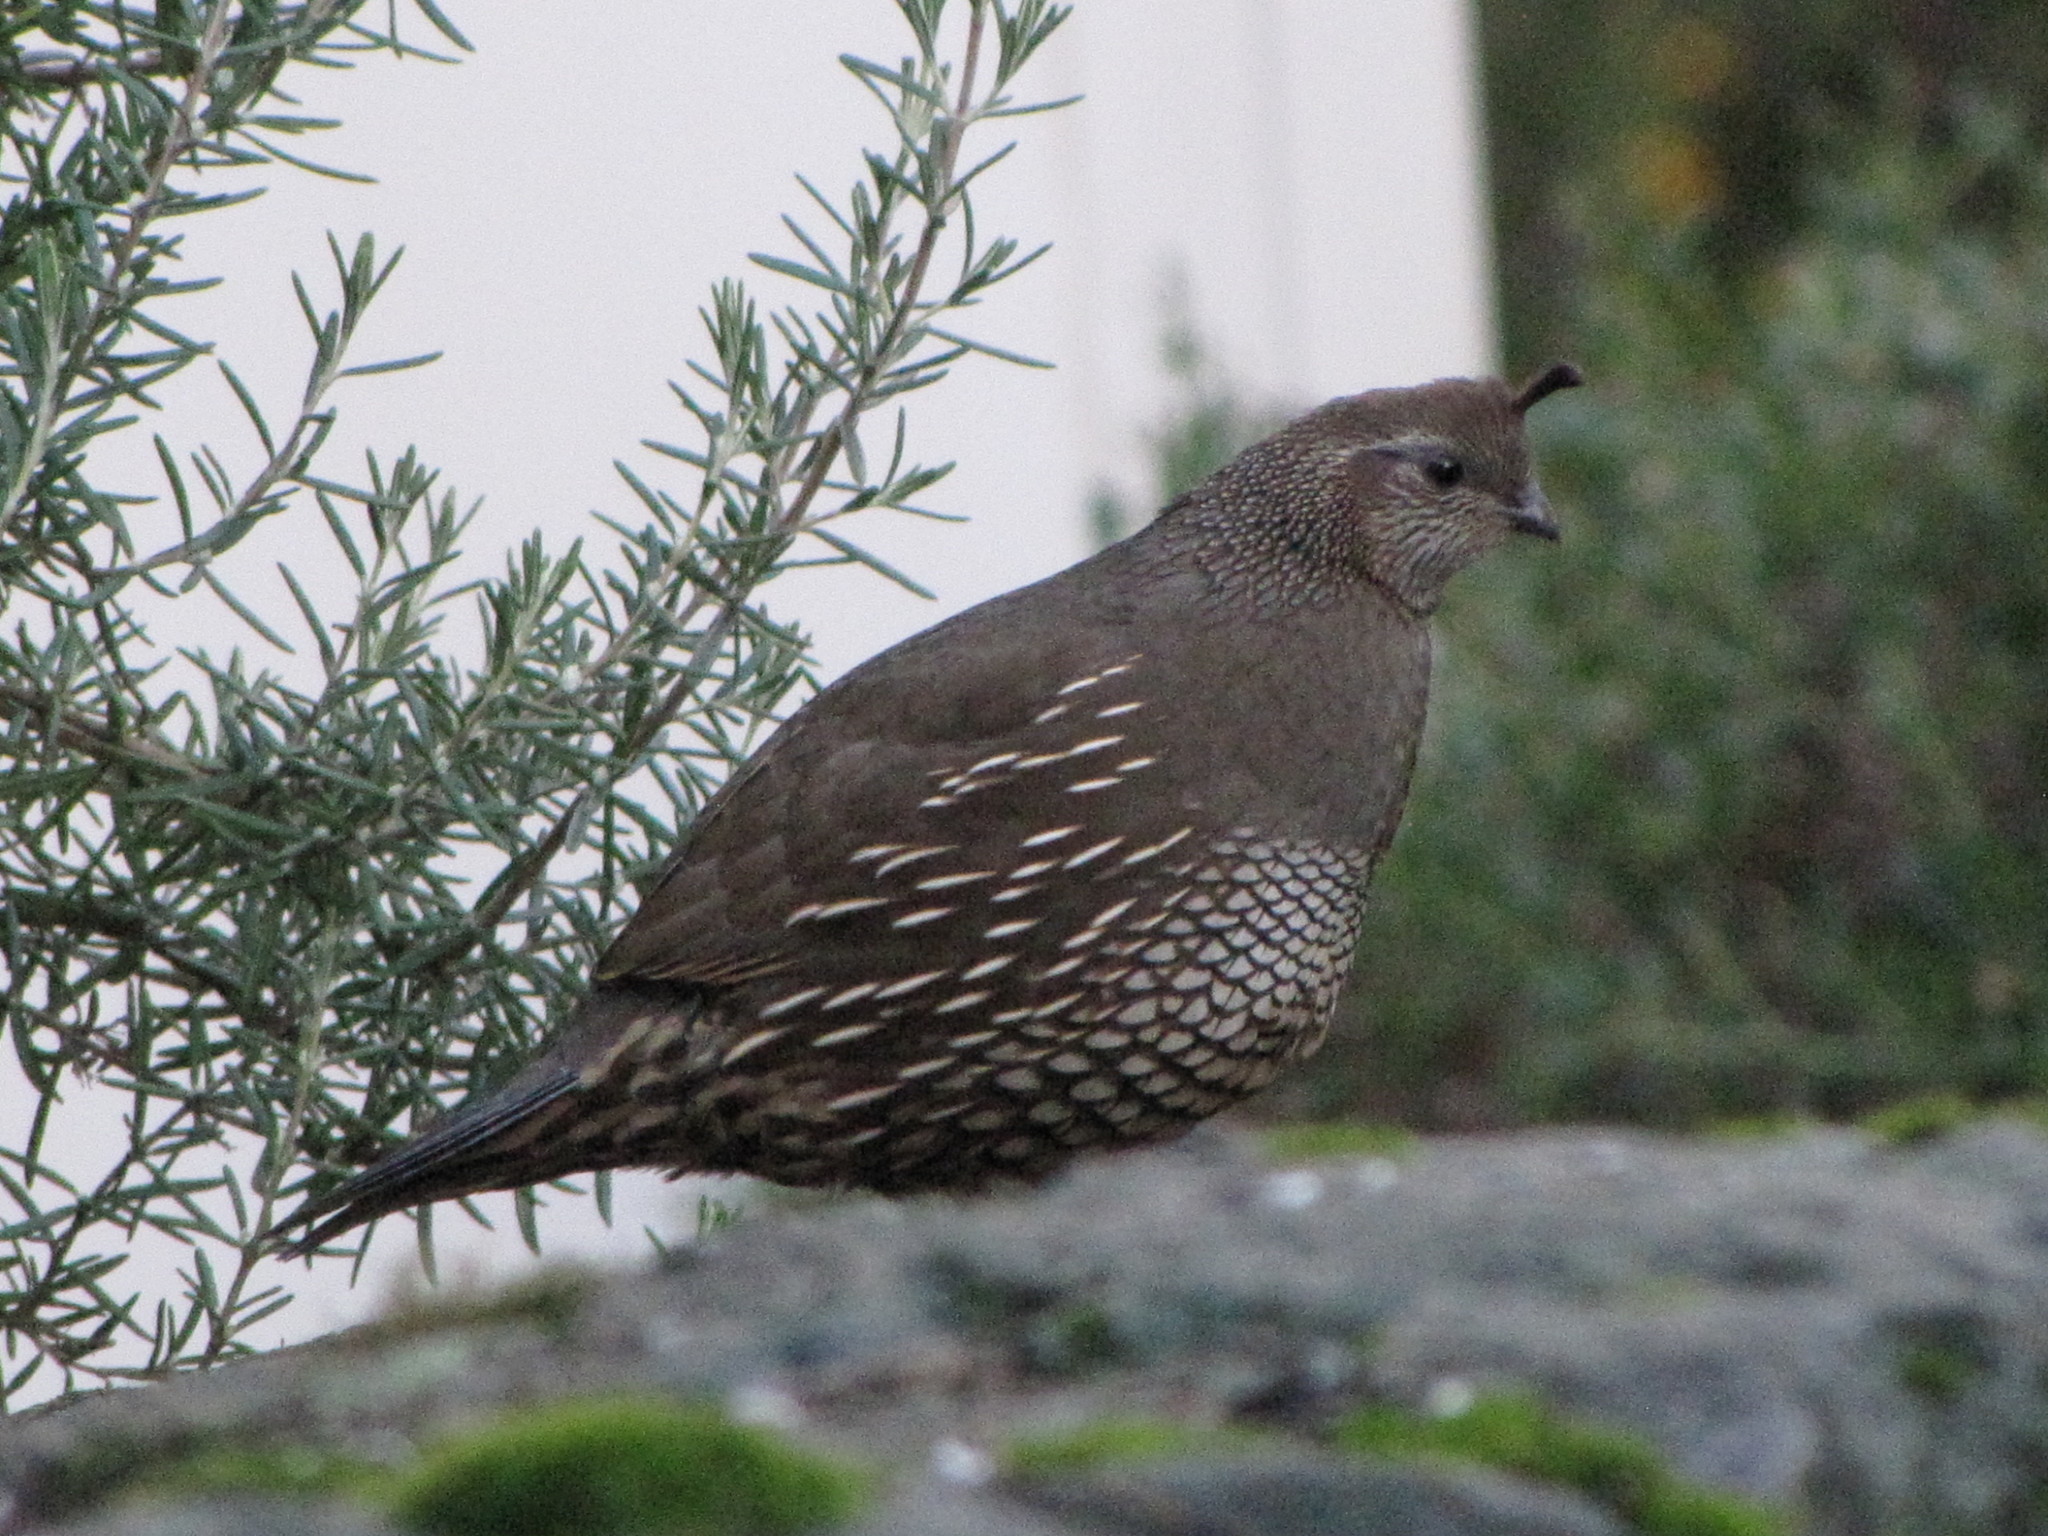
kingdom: Animalia
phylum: Chordata
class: Aves
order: Galliformes
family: Odontophoridae
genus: Callipepla
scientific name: Callipepla californica
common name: California quail
